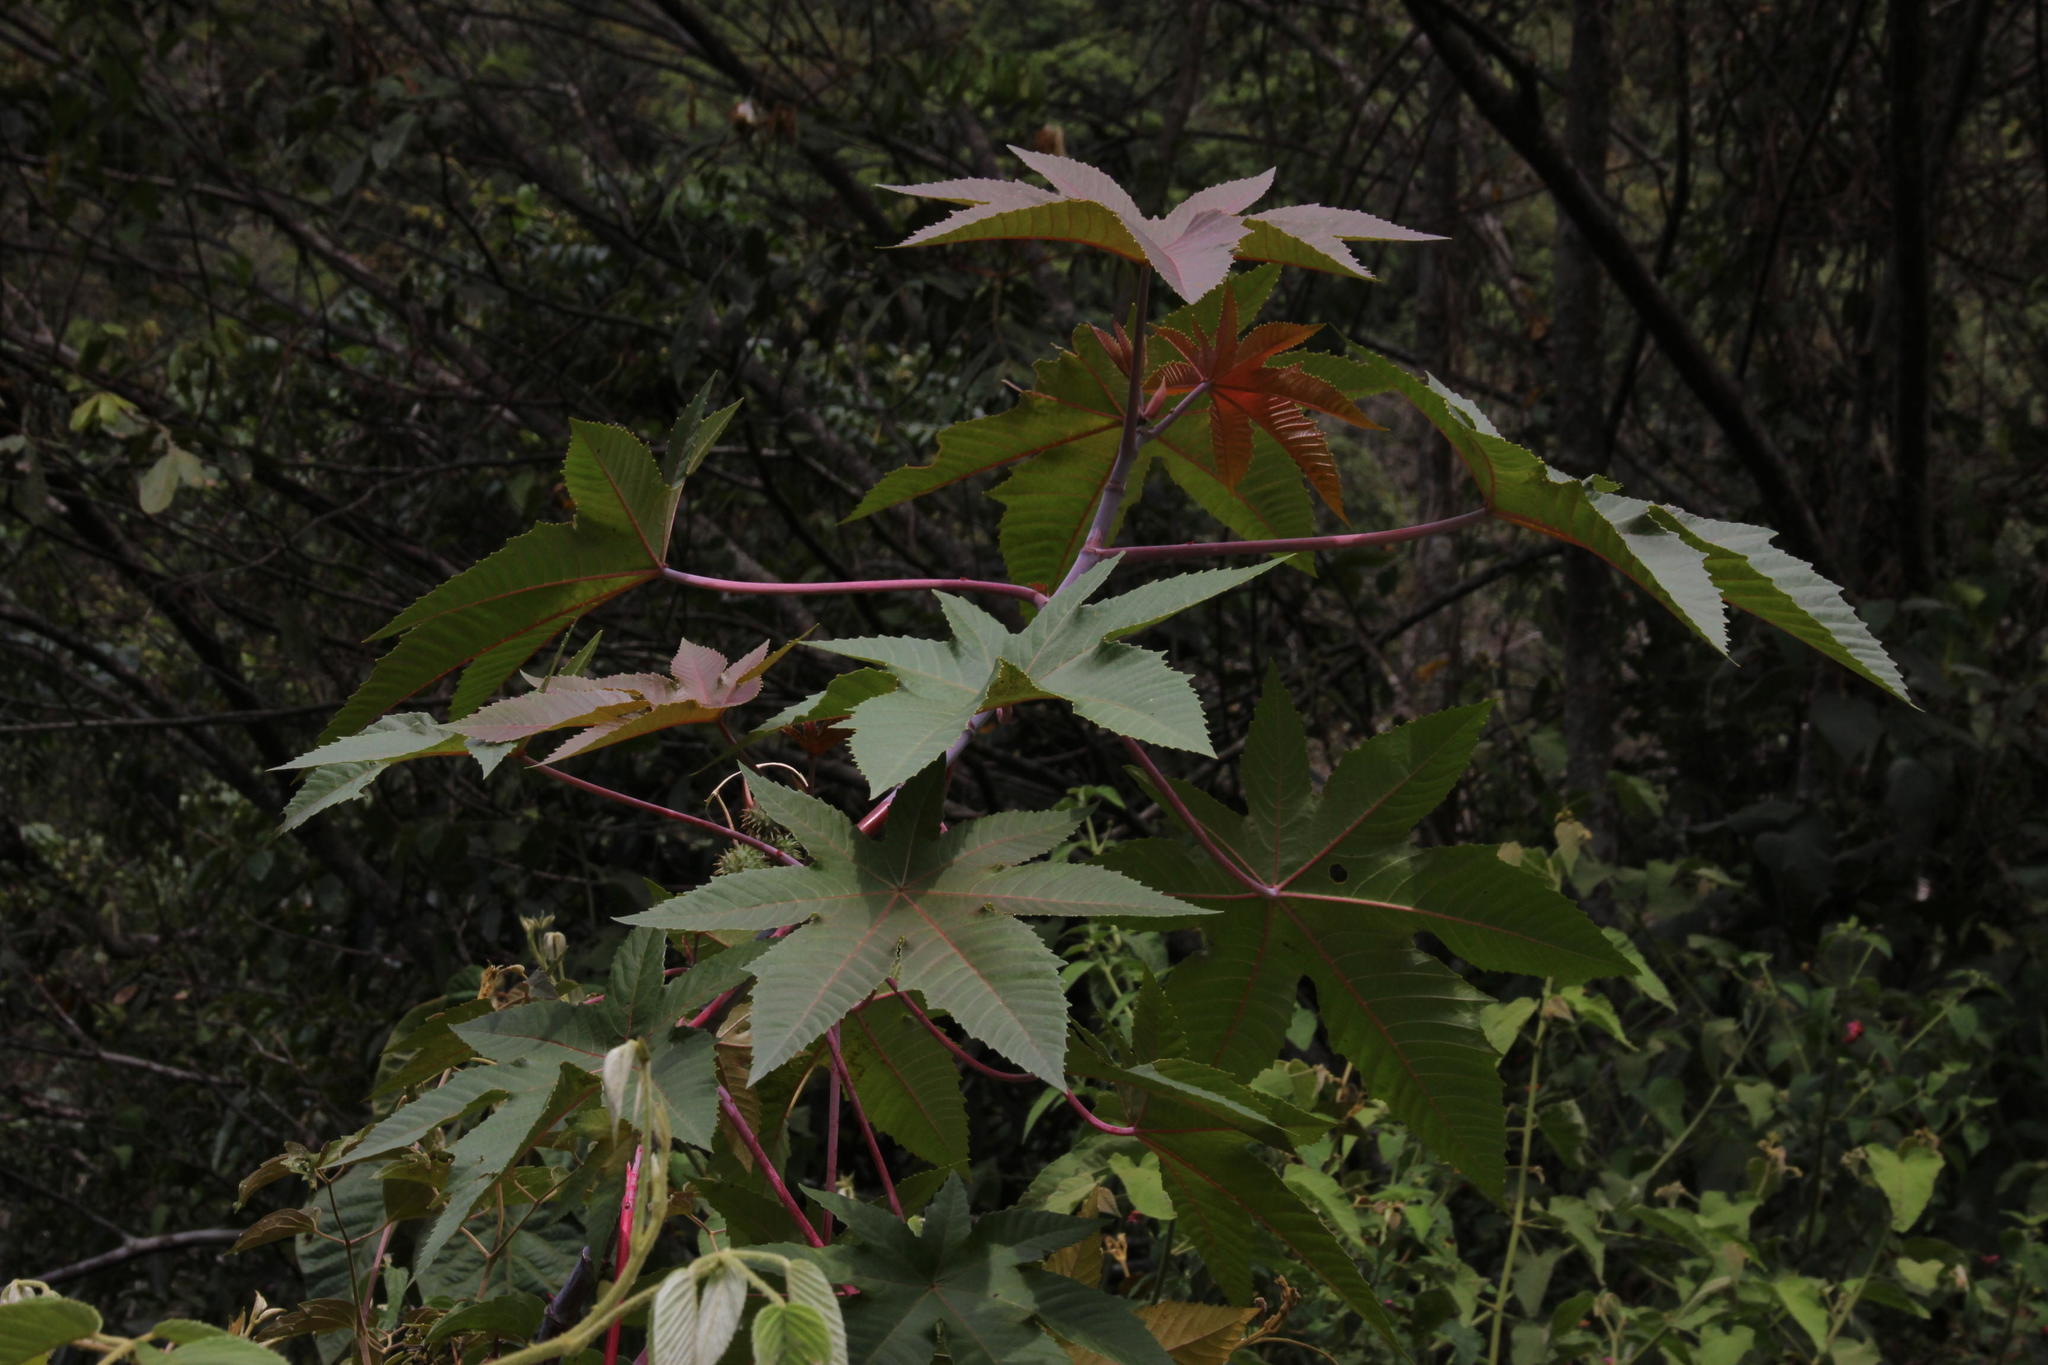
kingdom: Plantae
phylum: Tracheophyta
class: Magnoliopsida
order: Malpighiales
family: Euphorbiaceae
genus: Ricinus
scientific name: Ricinus communis
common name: Castor-oil-plant
